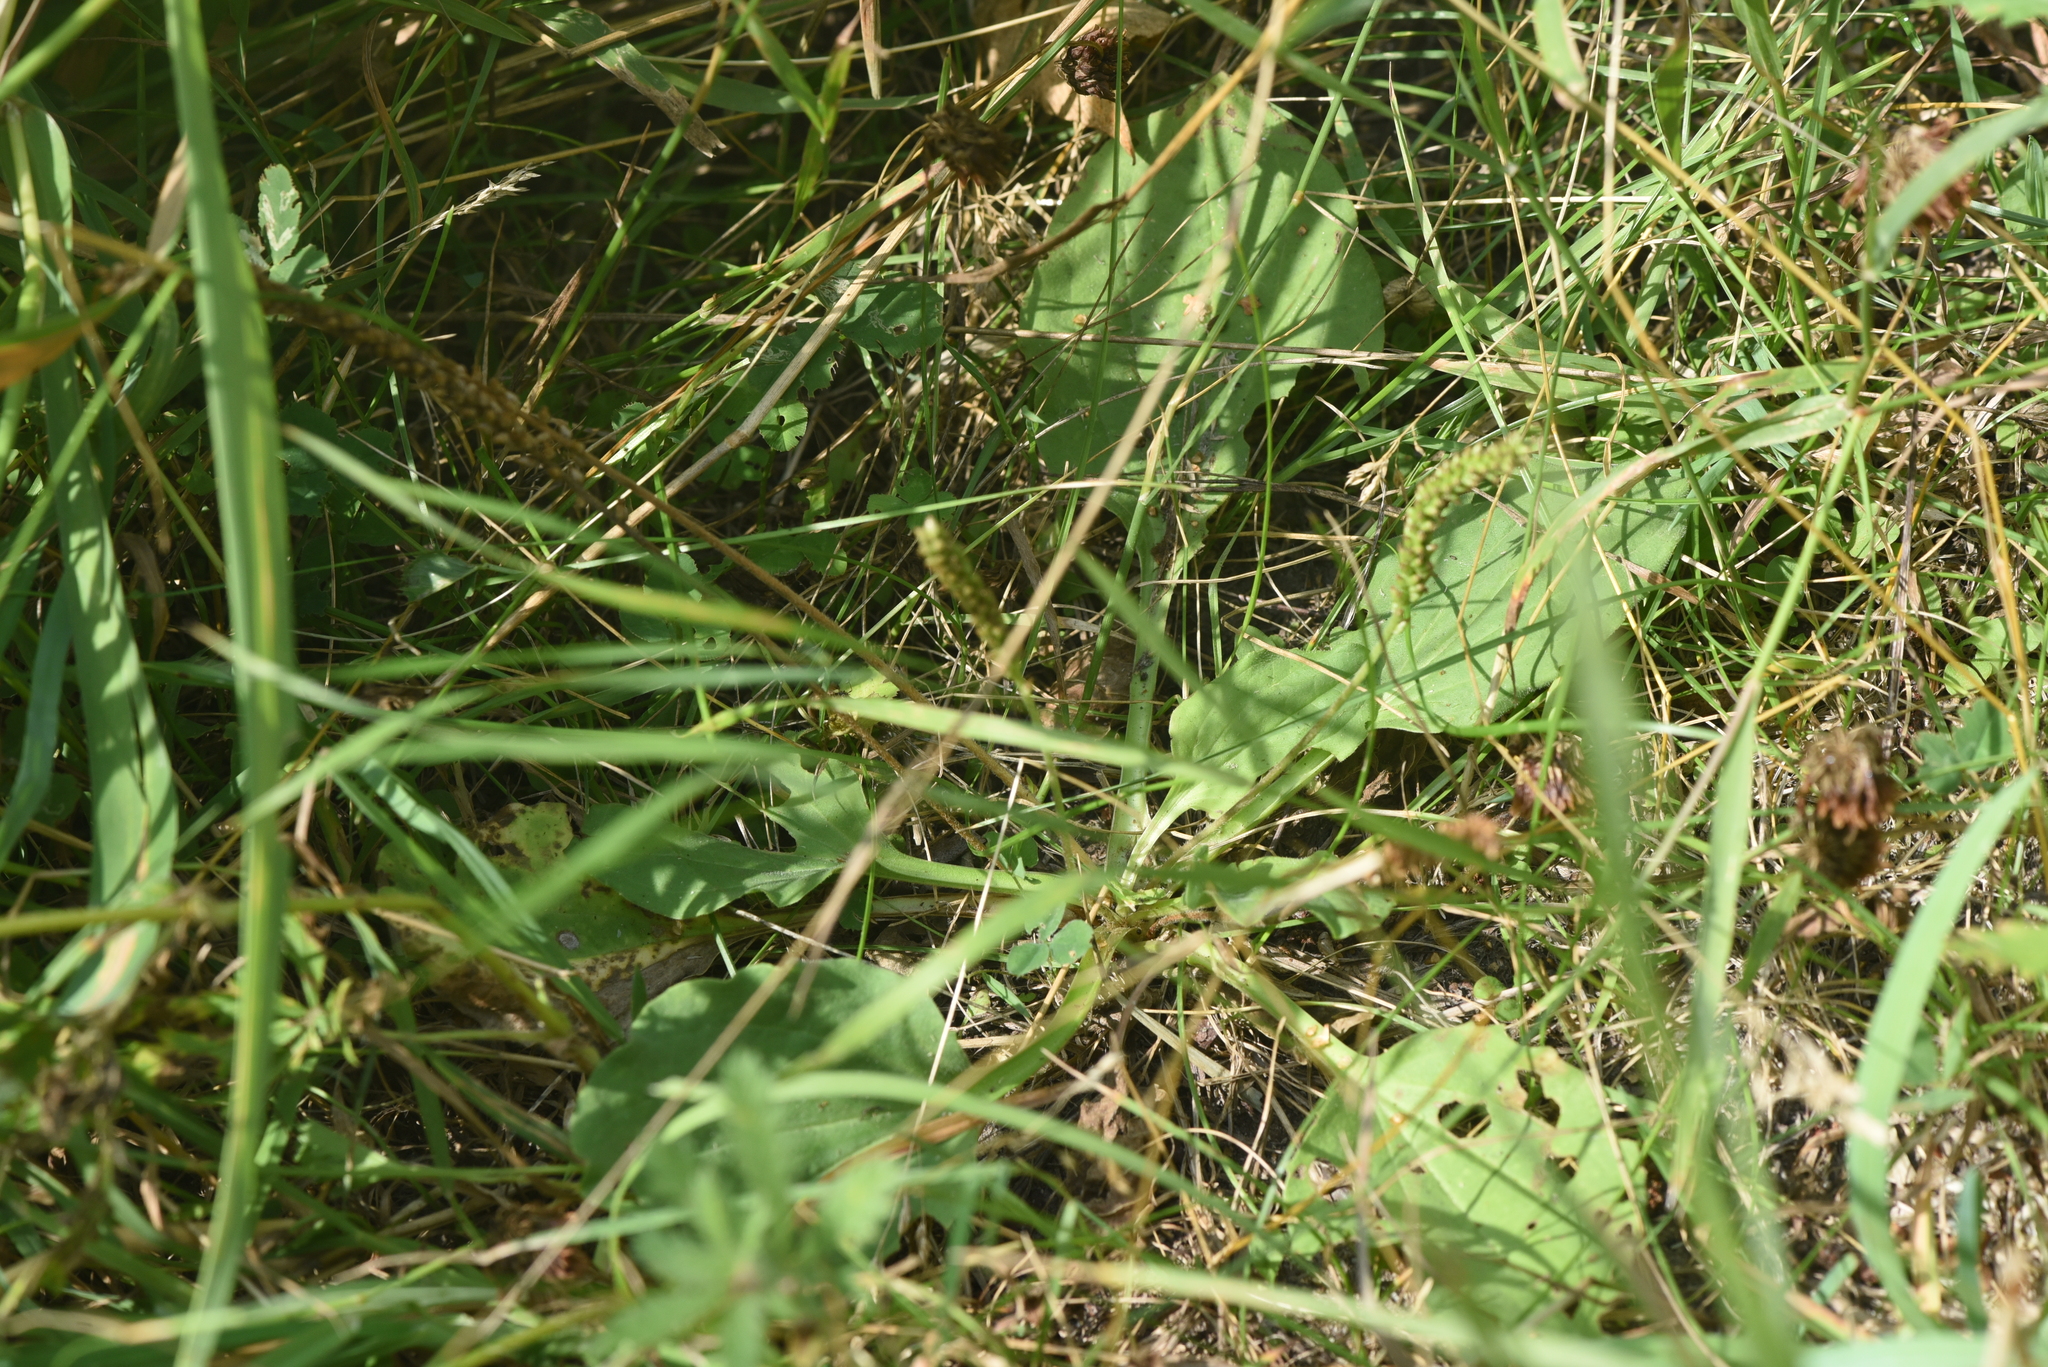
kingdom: Plantae
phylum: Tracheophyta
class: Magnoliopsida
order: Lamiales
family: Plantaginaceae
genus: Plantago
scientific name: Plantago major
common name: Common plantain
